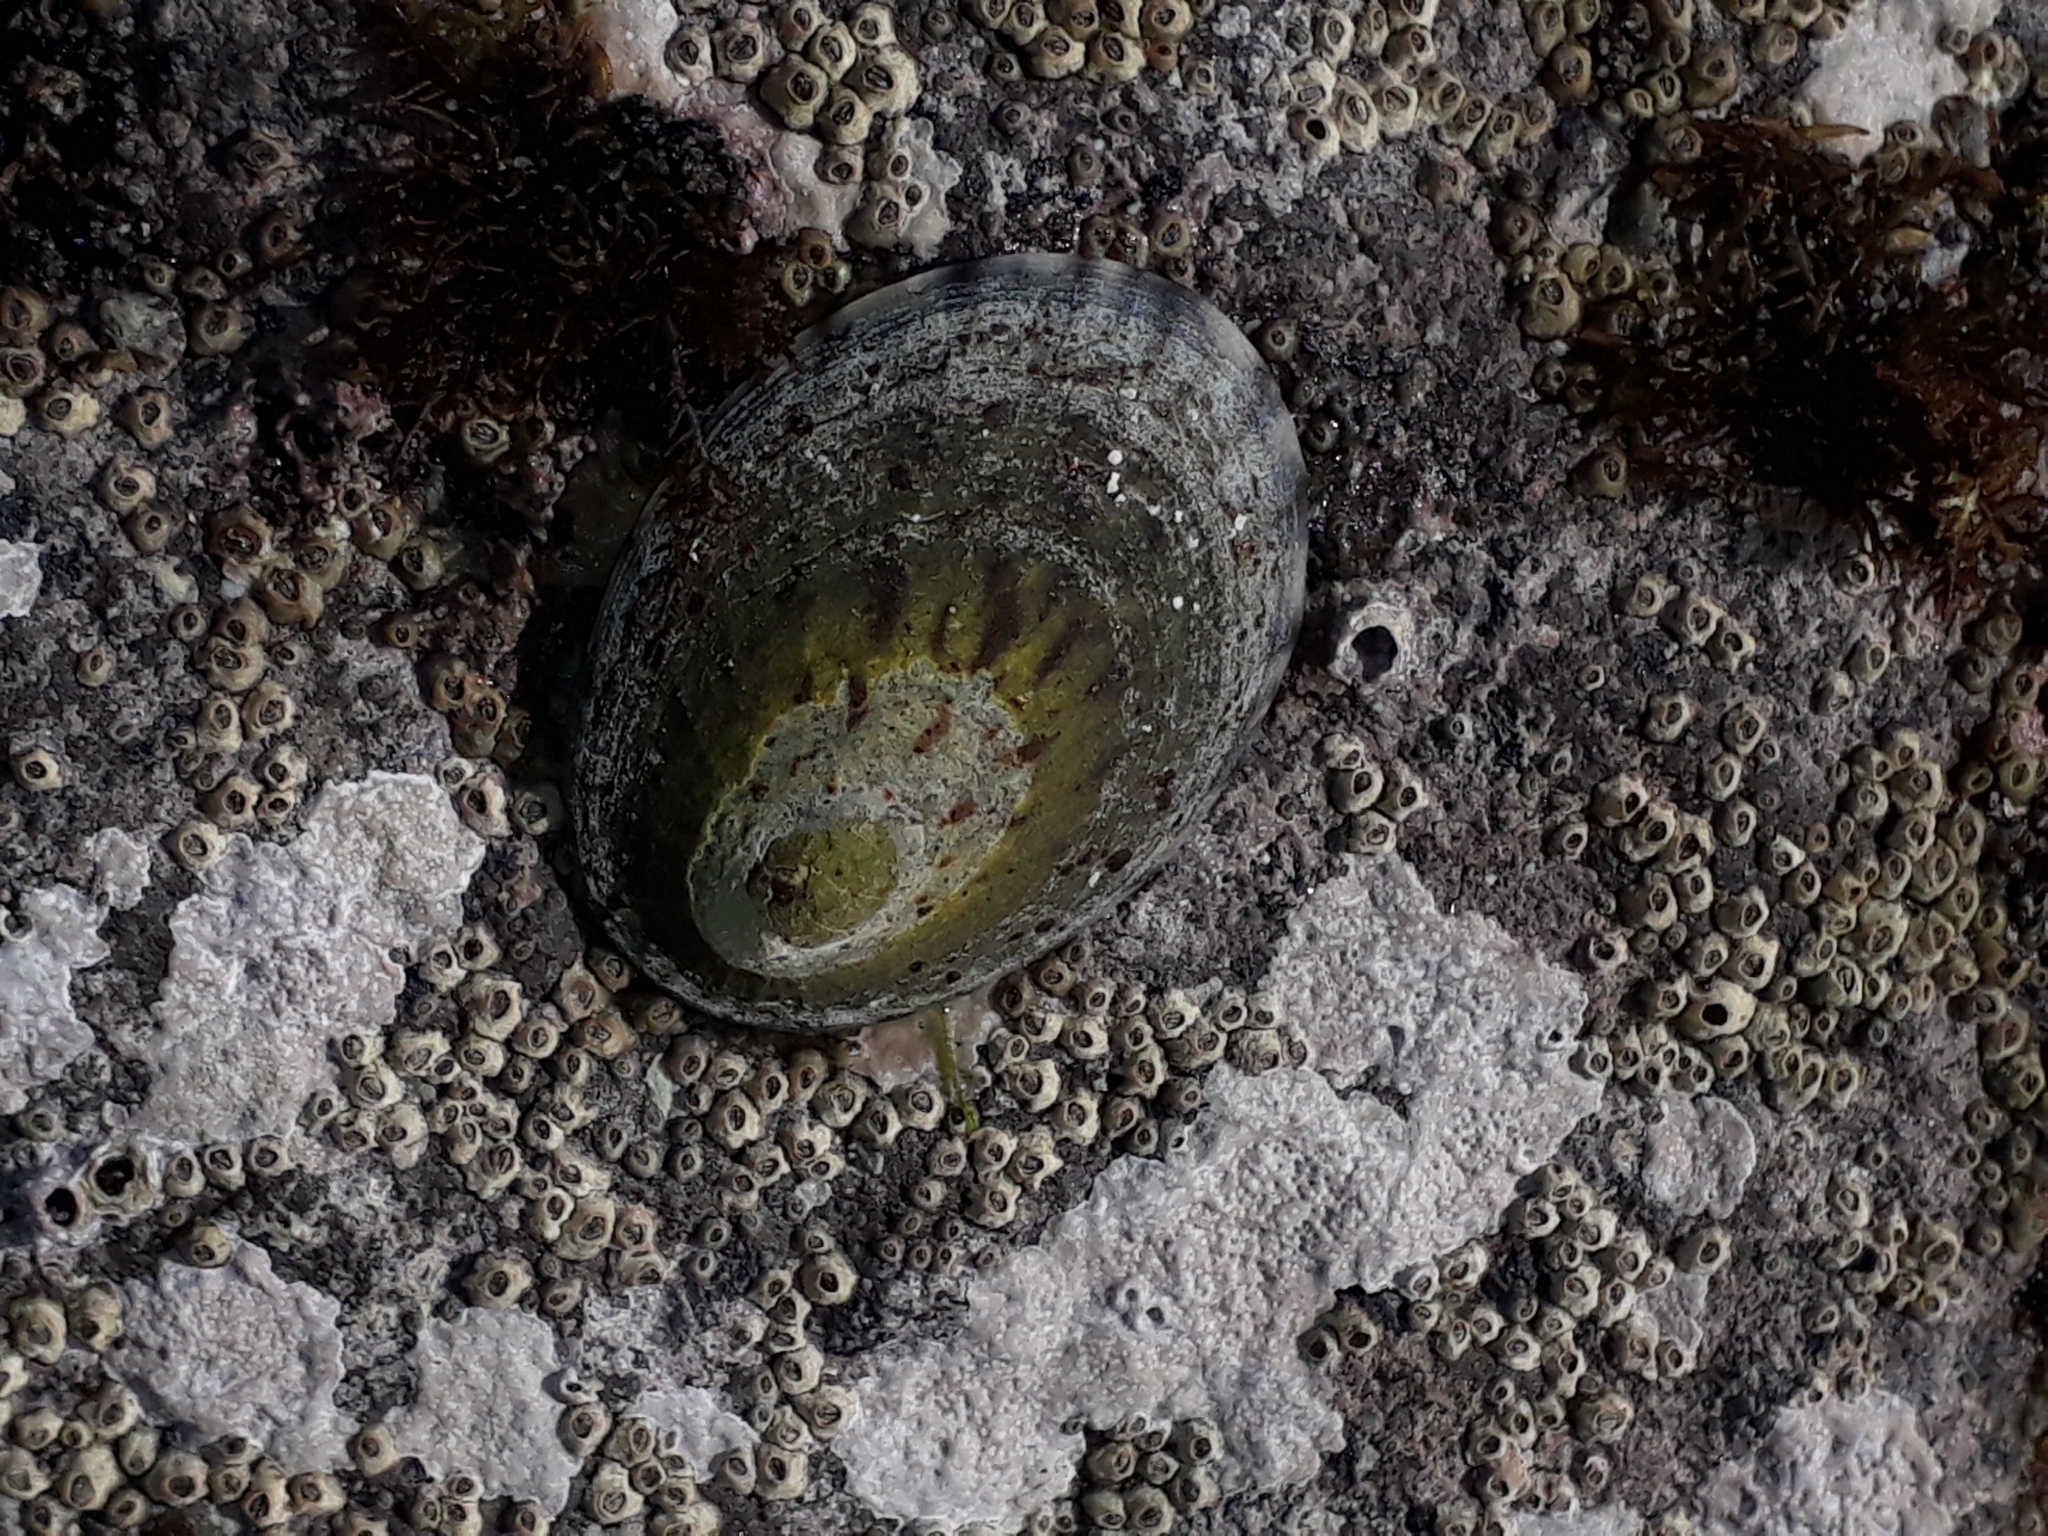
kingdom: Animalia
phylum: Mollusca
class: Gastropoda
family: Nacellidae
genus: Cellana
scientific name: Cellana radians
